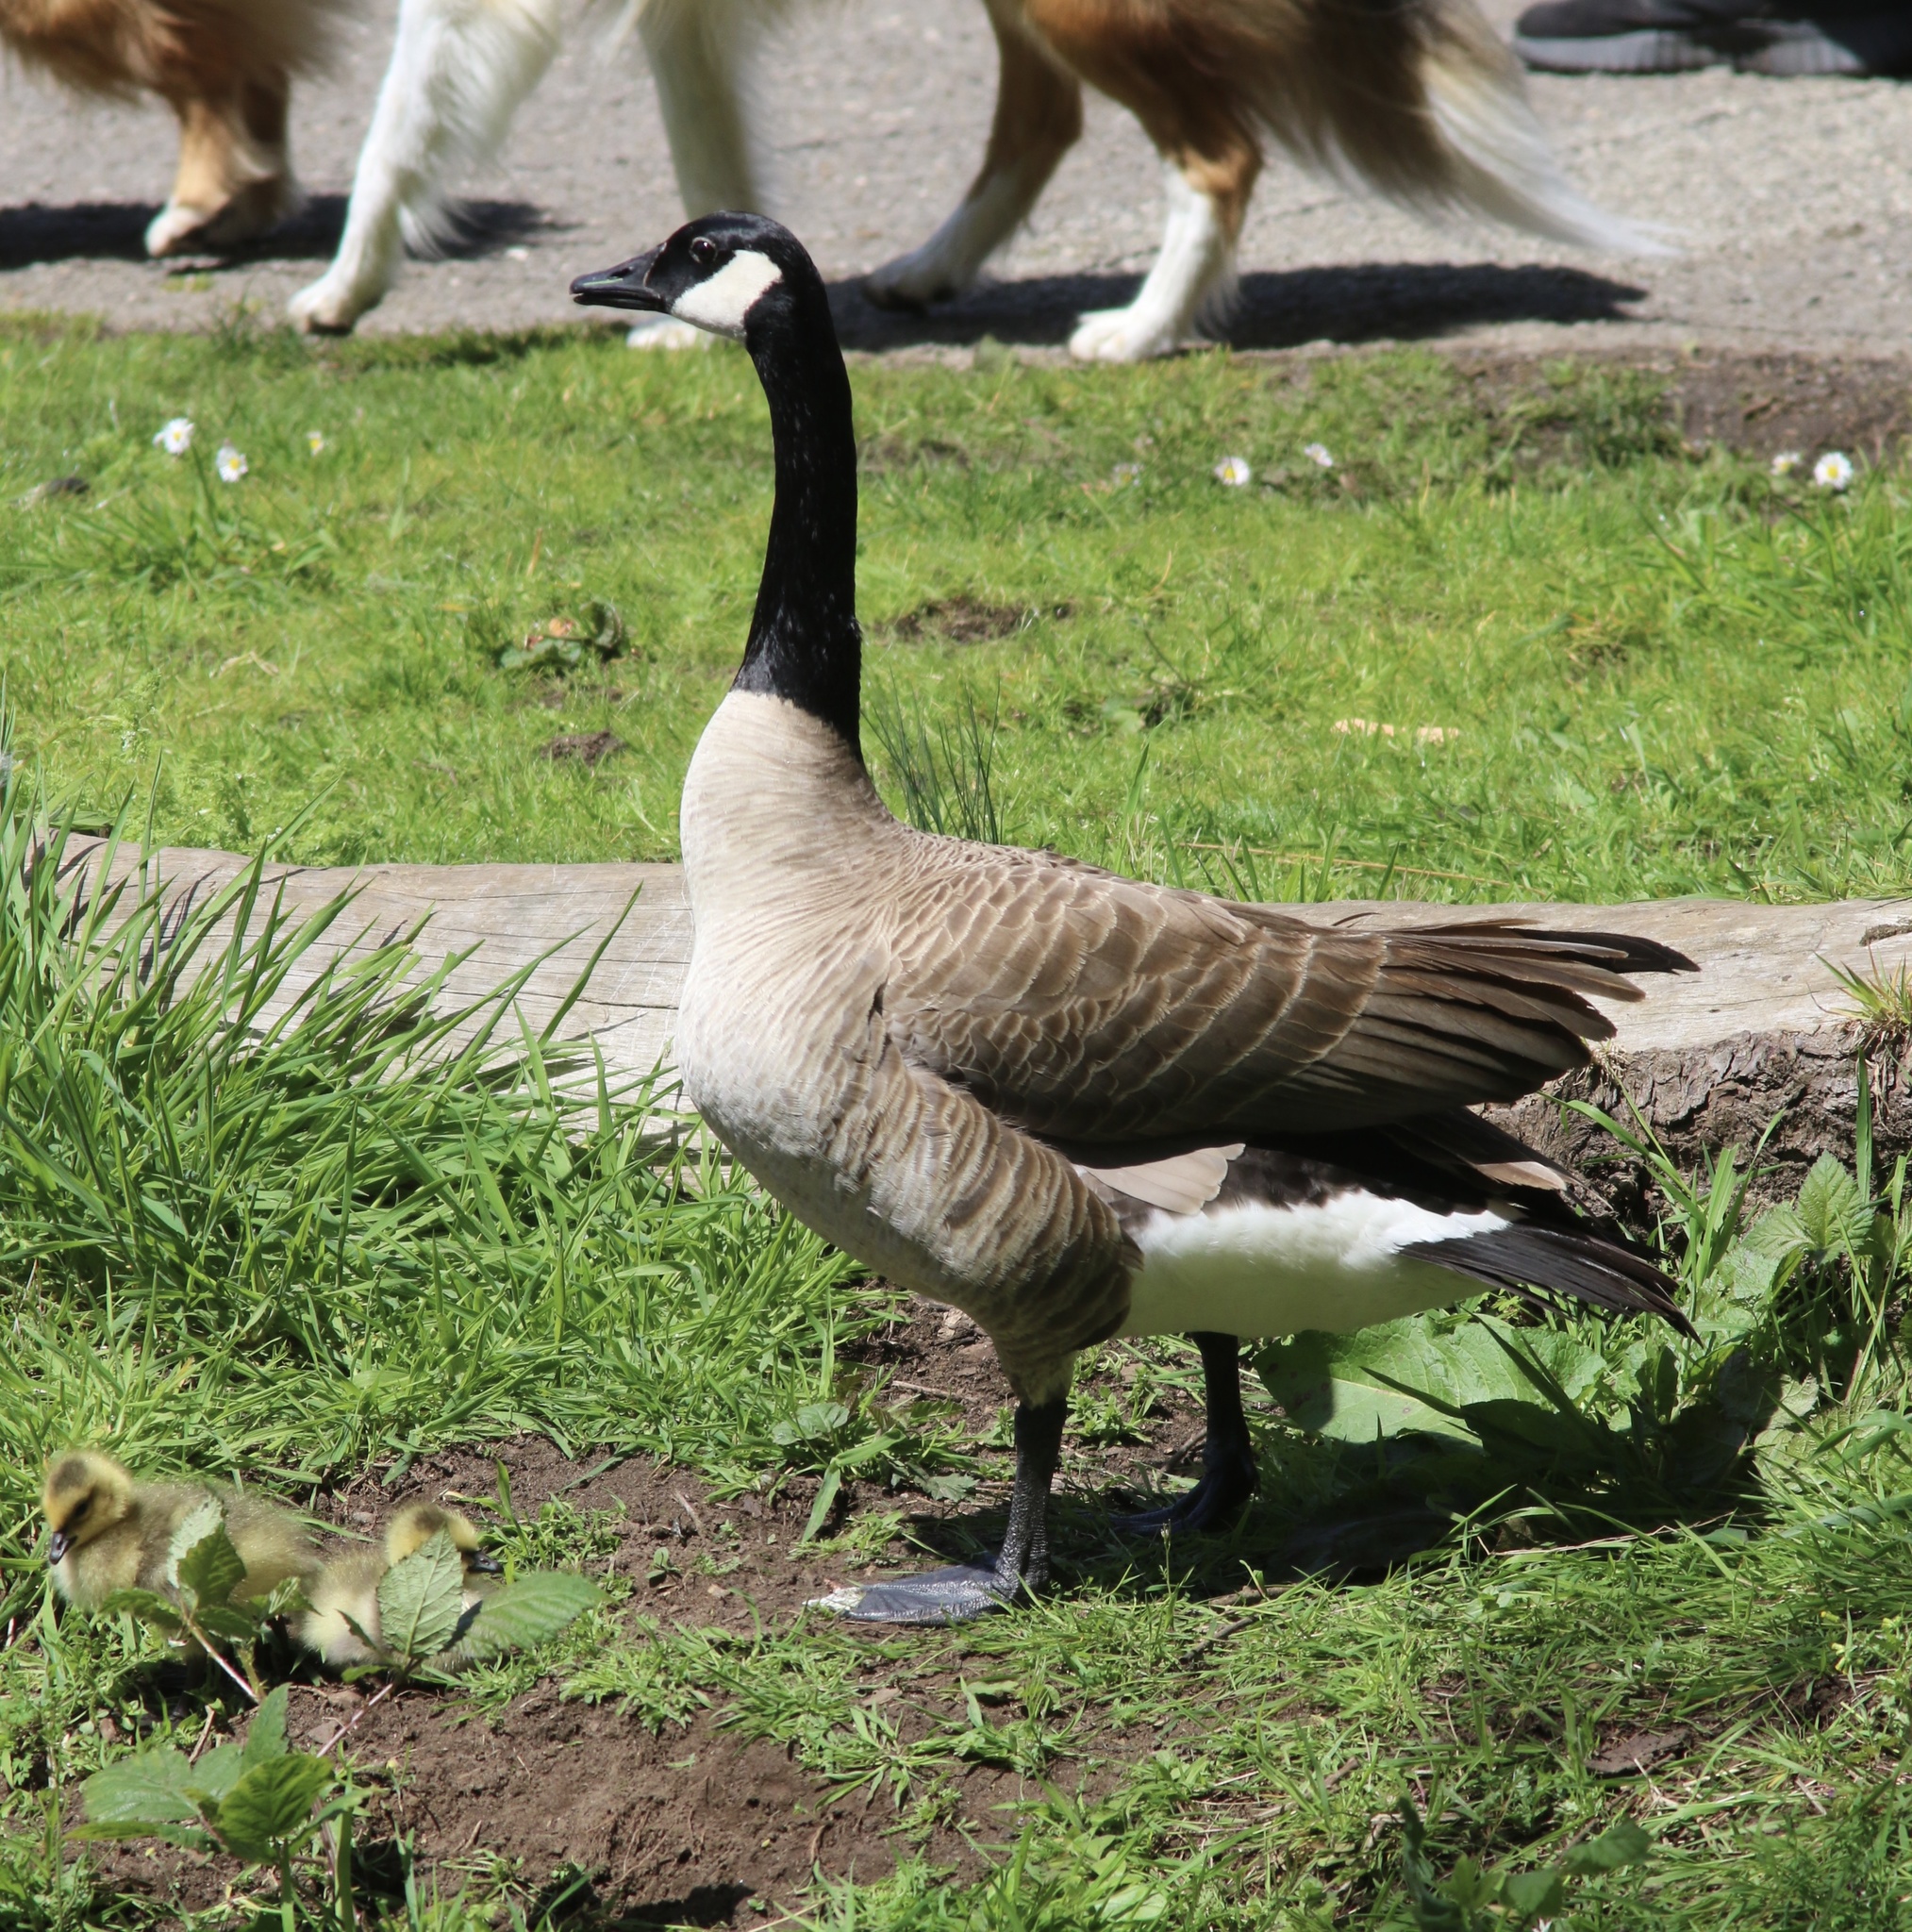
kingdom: Animalia
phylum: Chordata
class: Aves
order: Anseriformes
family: Anatidae
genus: Branta
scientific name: Branta canadensis
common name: Canada goose
